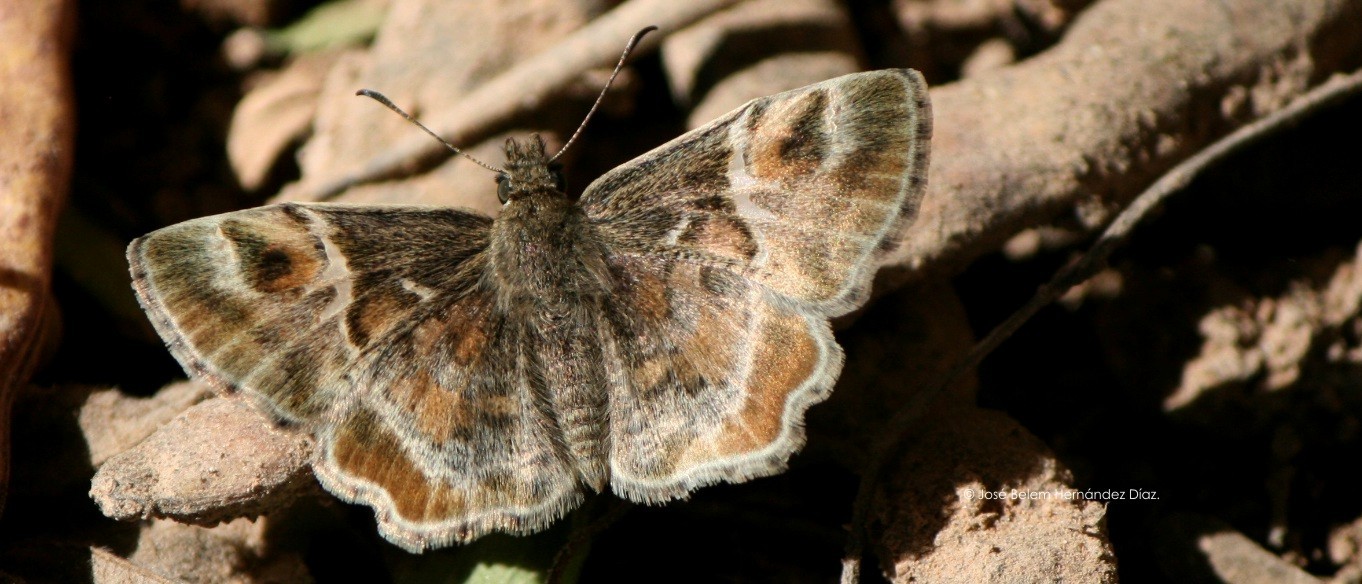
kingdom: Animalia
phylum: Arthropoda
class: Insecta
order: Lepidoptera
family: Hesperiidae
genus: Systasea
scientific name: Systasea pulverulenta
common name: Texas powdered skipper
